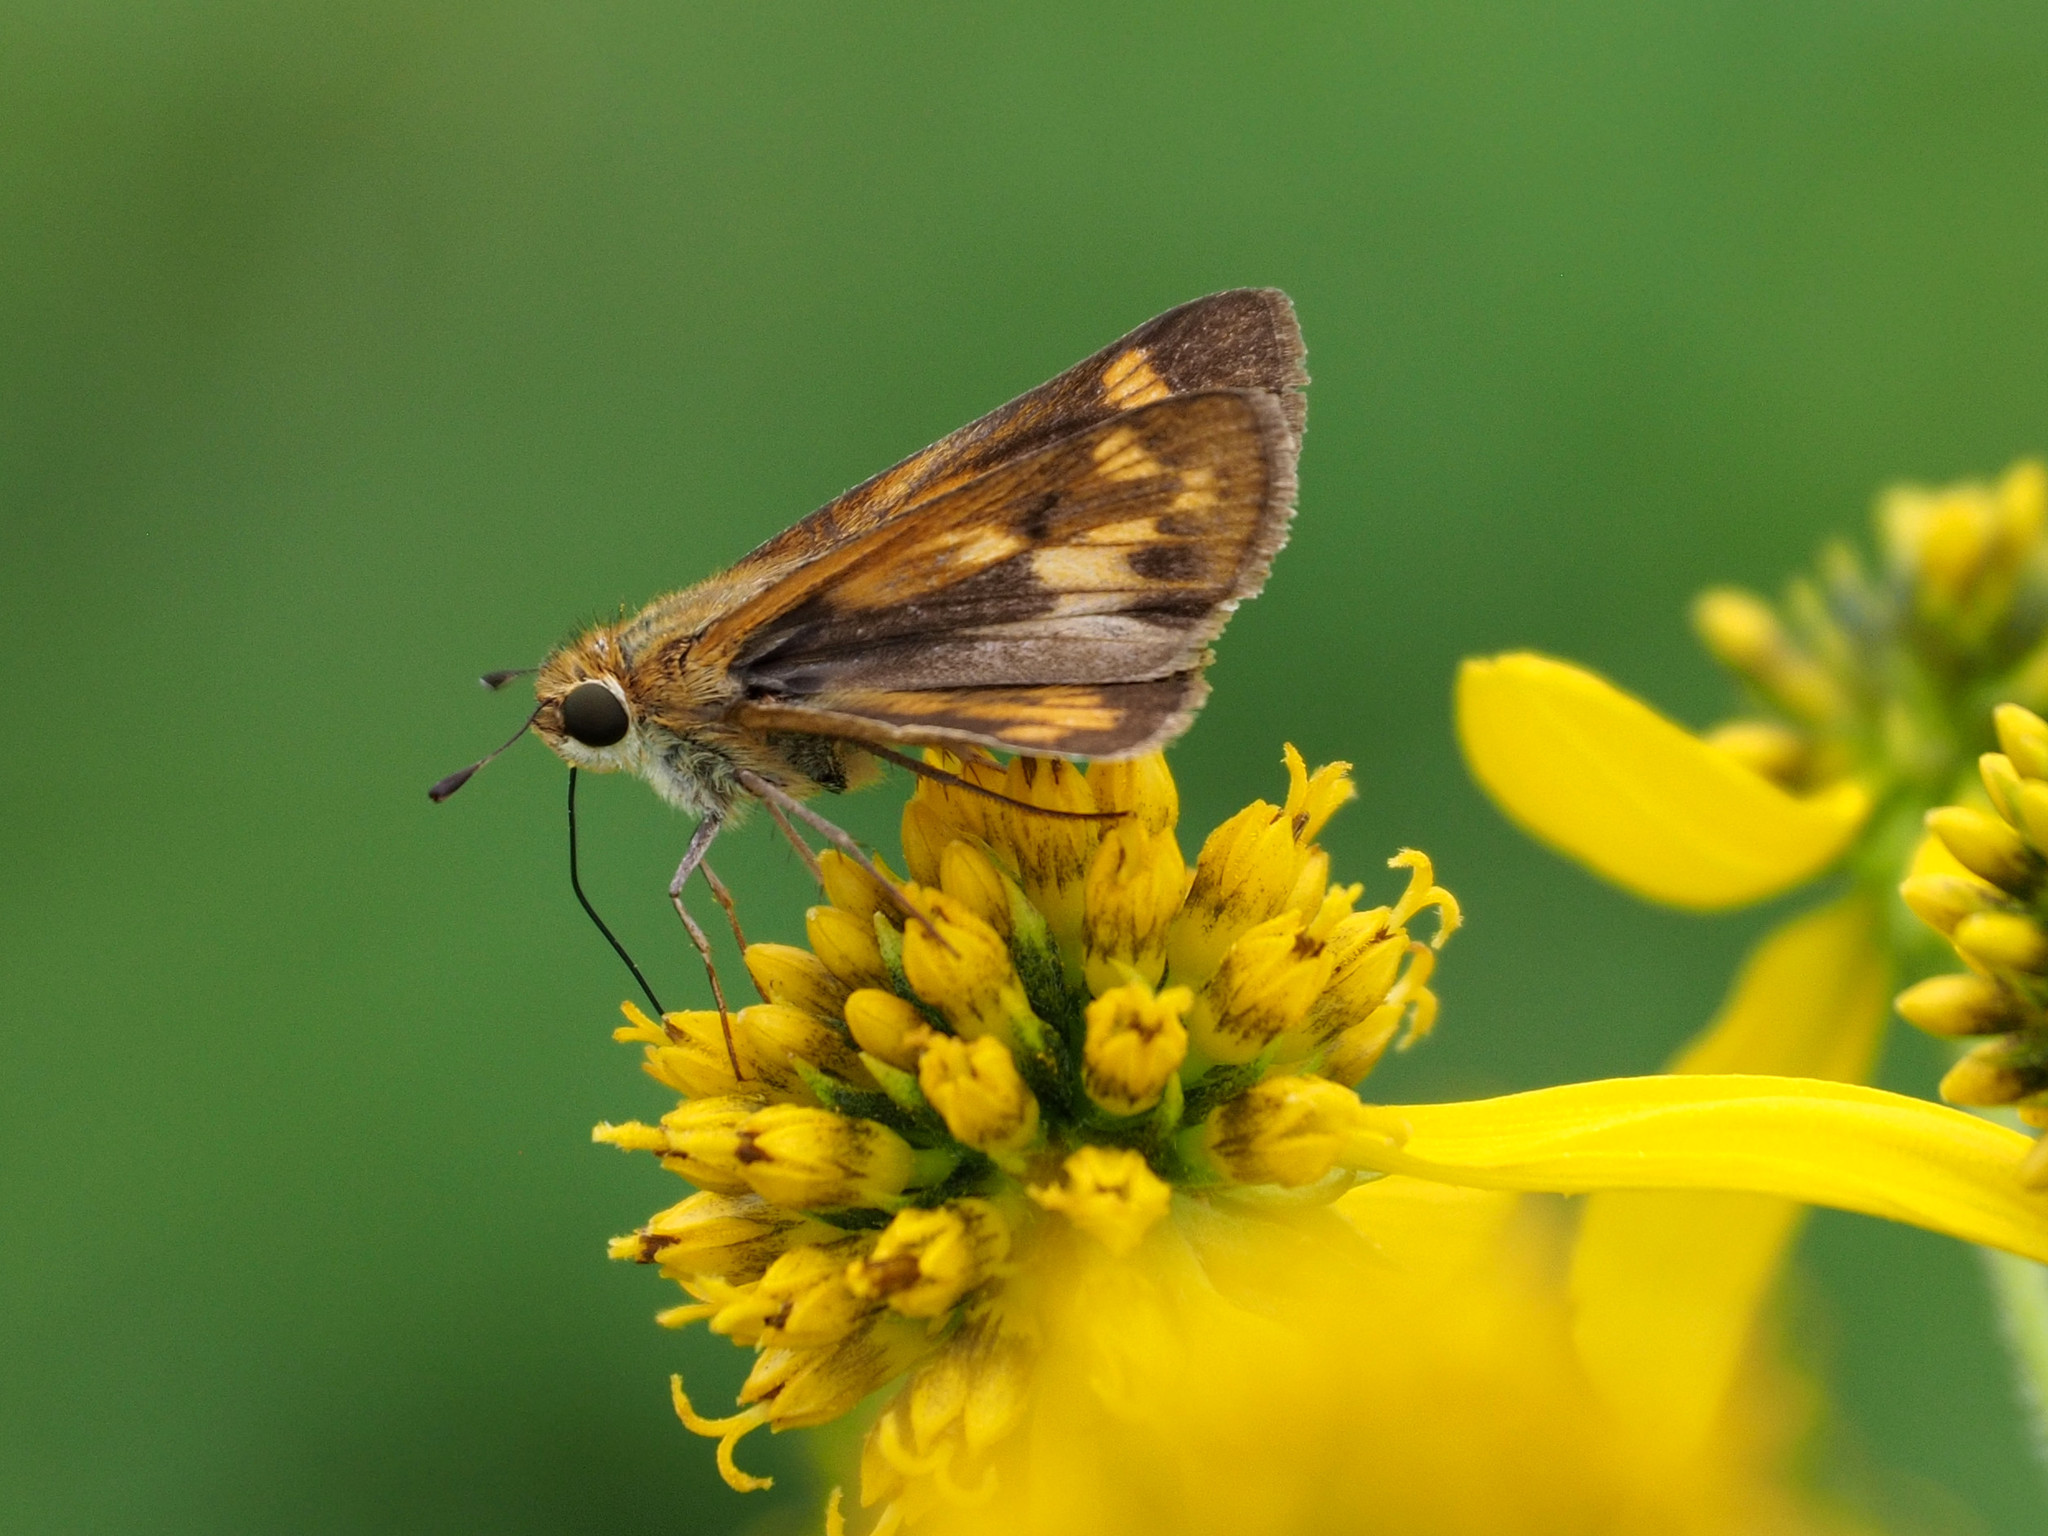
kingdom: Animalia
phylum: Arthropoda
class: Insecta
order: Lepidoptera
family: Hesperiidae
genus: Hylephila
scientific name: Hylephila phyleus
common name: Fiery skipper
